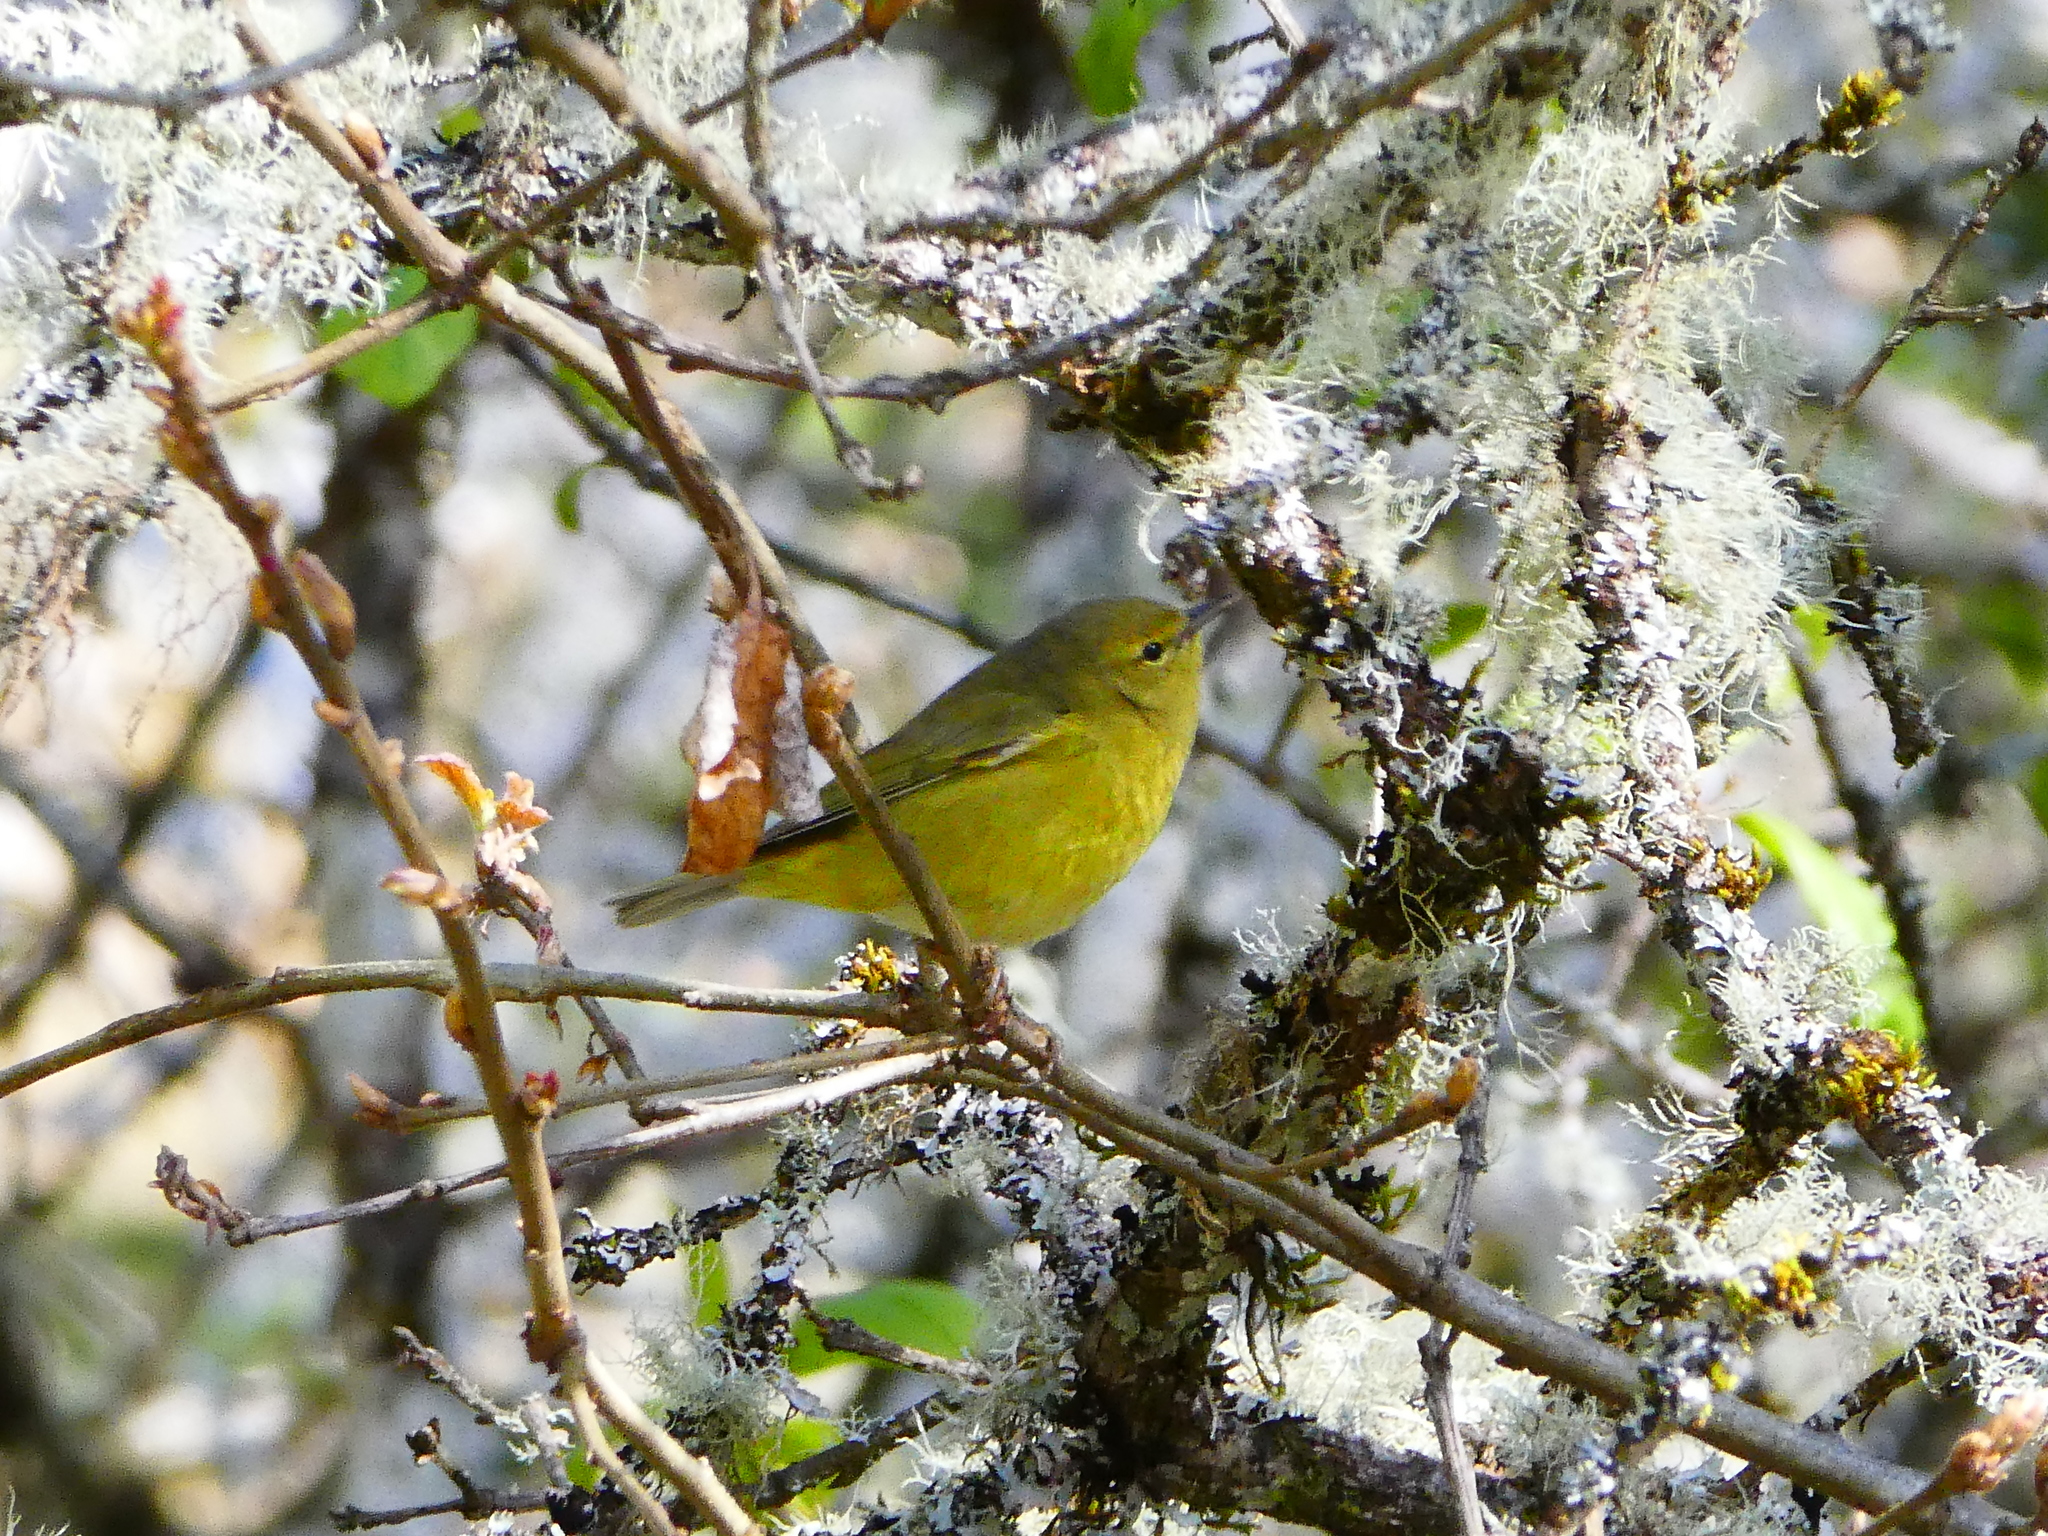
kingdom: Animalia
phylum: Chordata
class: Aves
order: Passeriformes
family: Parulidae
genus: Leiothlypis
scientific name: Leiothlypis celata
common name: Orange-crowned warbler
